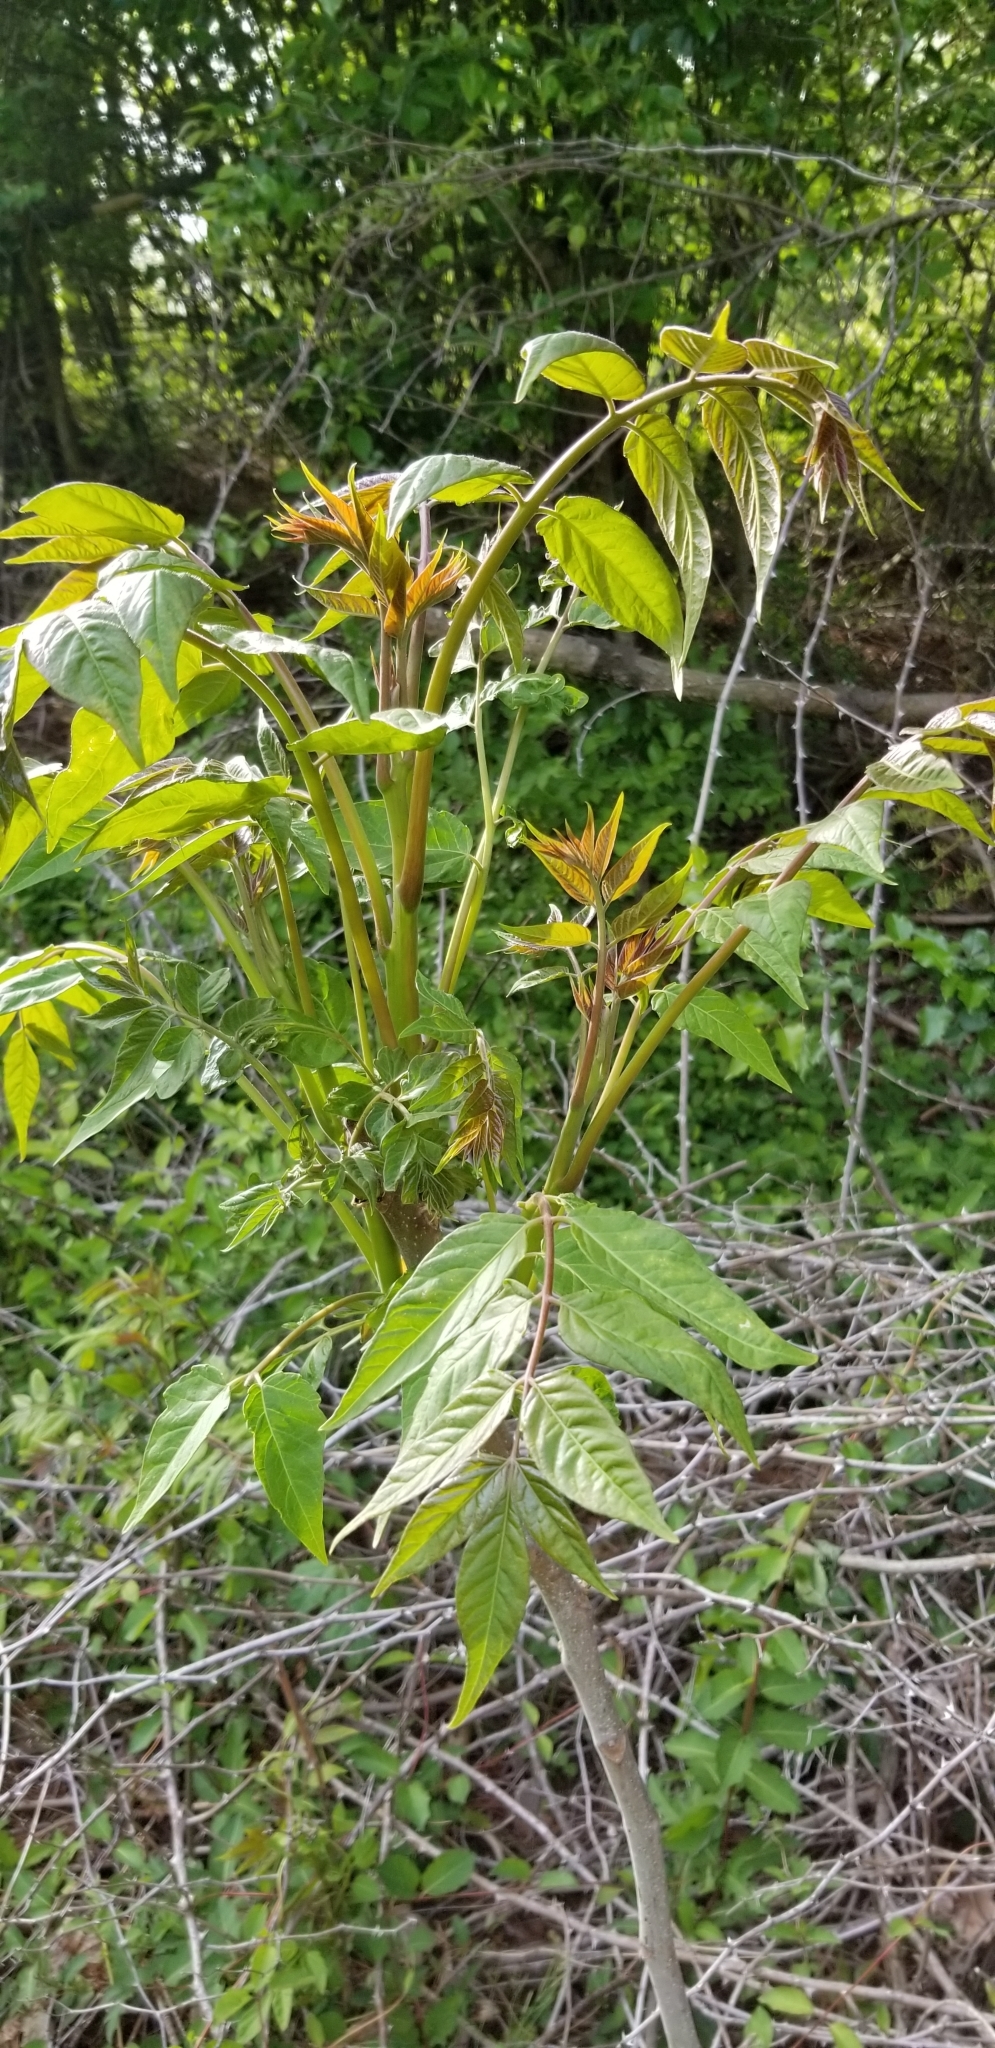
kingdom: Plantae
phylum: Tracheophyta
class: Magnoliopsida
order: Sapindales
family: Simaroubaceae
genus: Ailanthus
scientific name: Ailanthus altissima
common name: Tree-of-heaven
